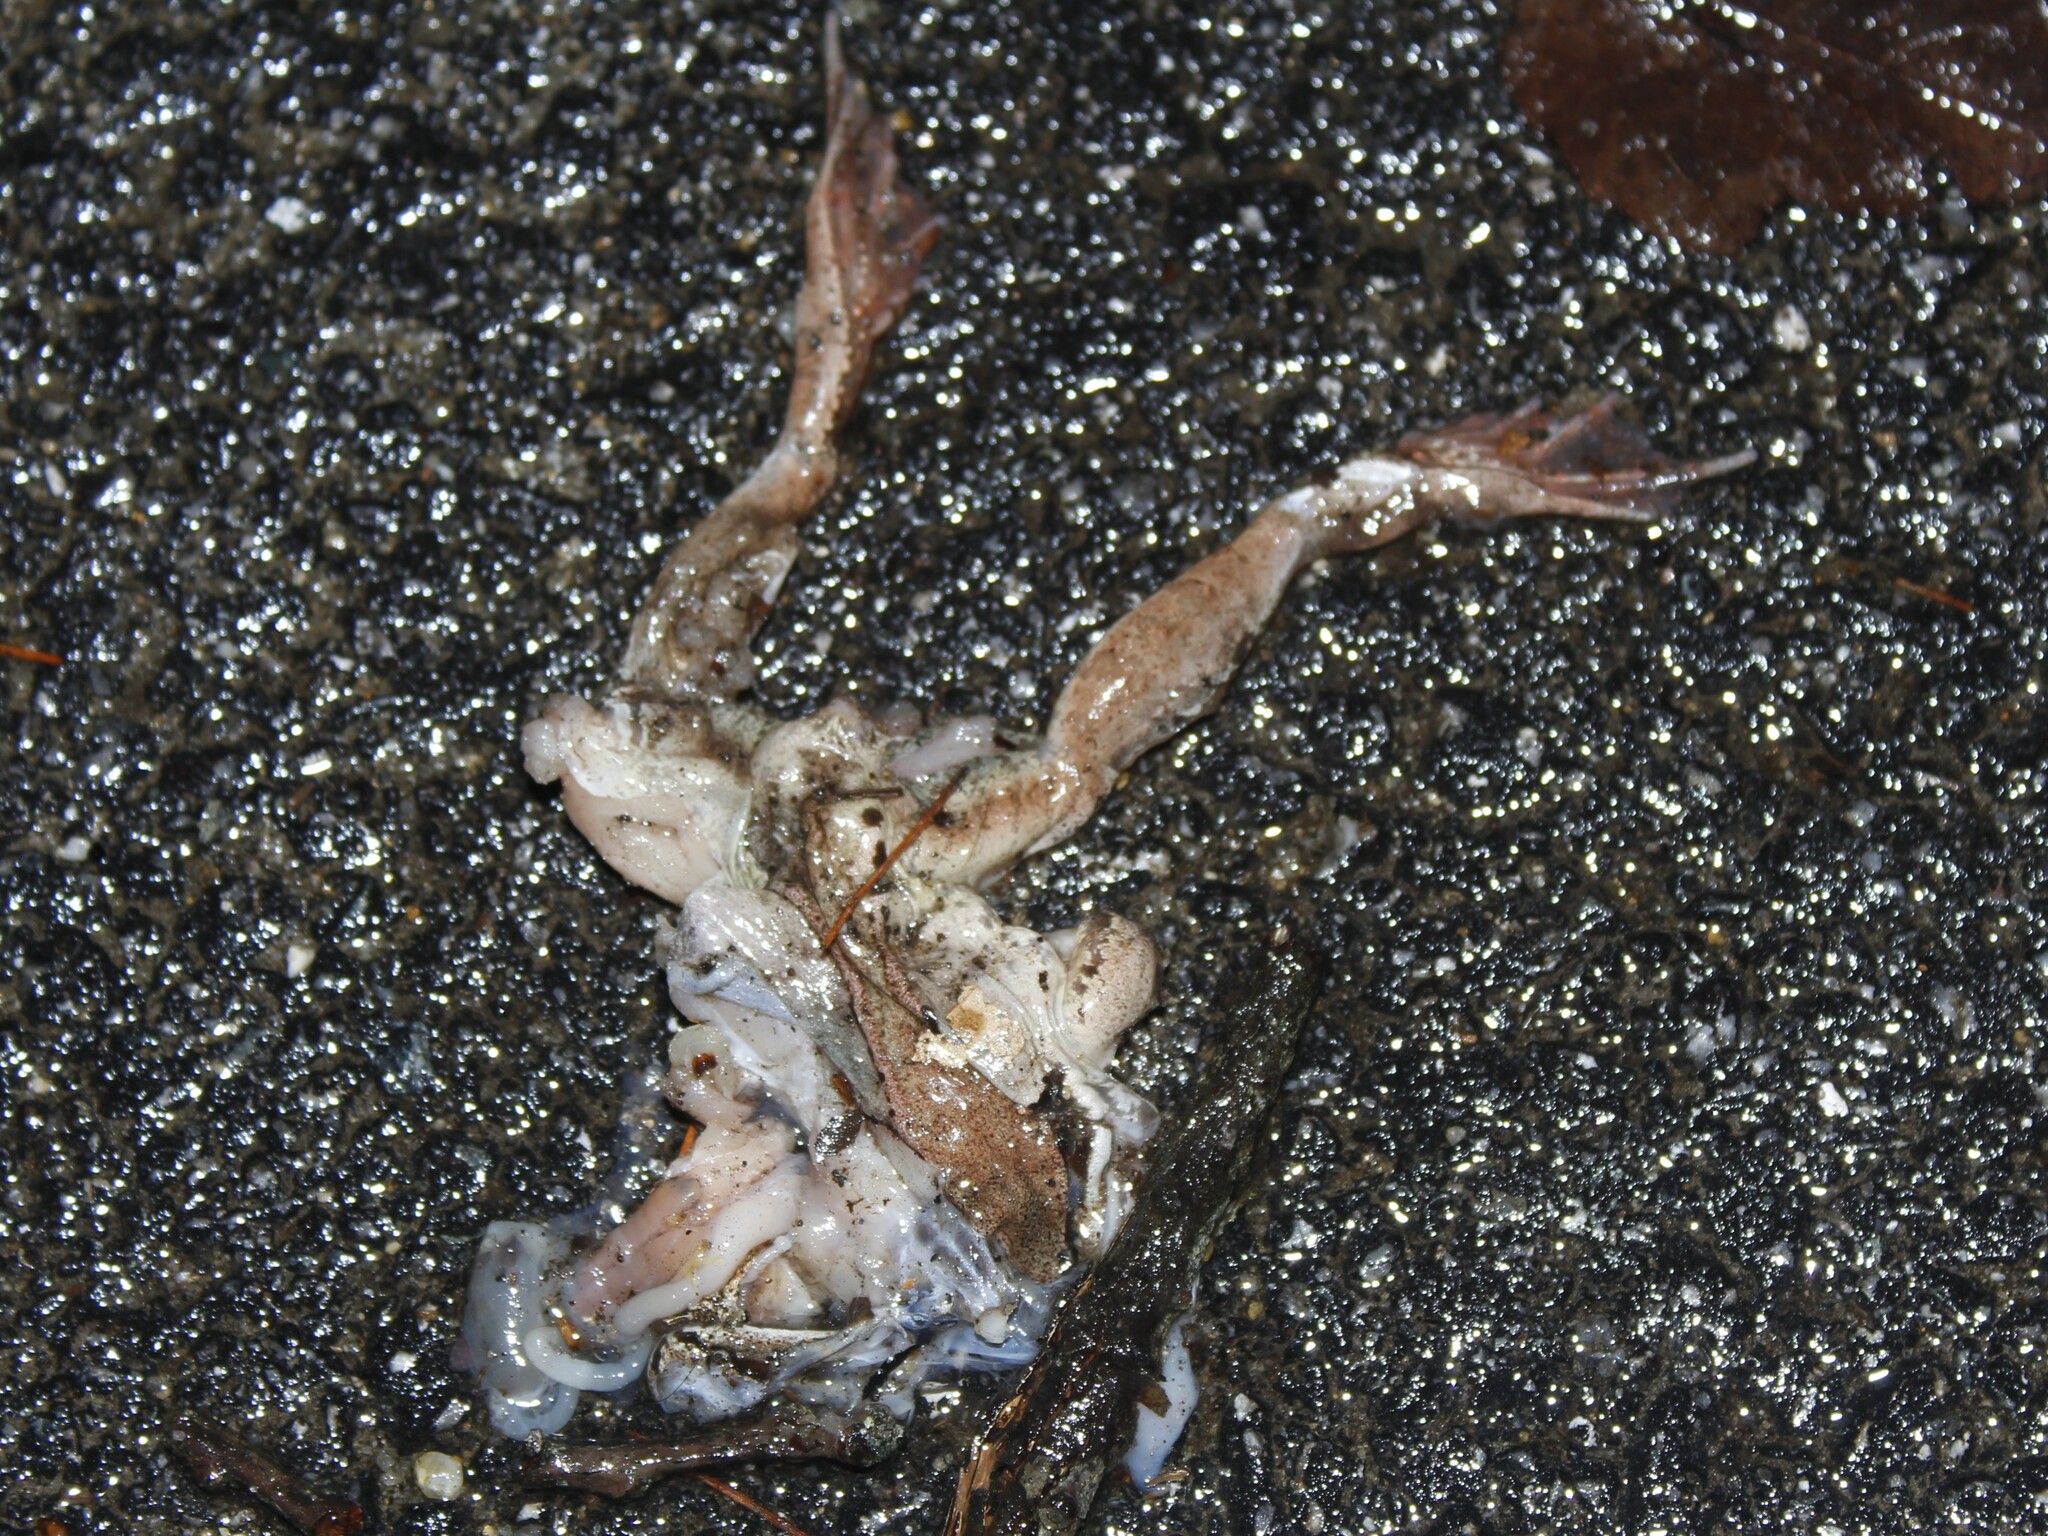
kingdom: Animalia
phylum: Chordata
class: Amphibia
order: Anura
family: Ranidae
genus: Lithobates
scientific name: Lithobates sylvaticus
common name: Wood frog
